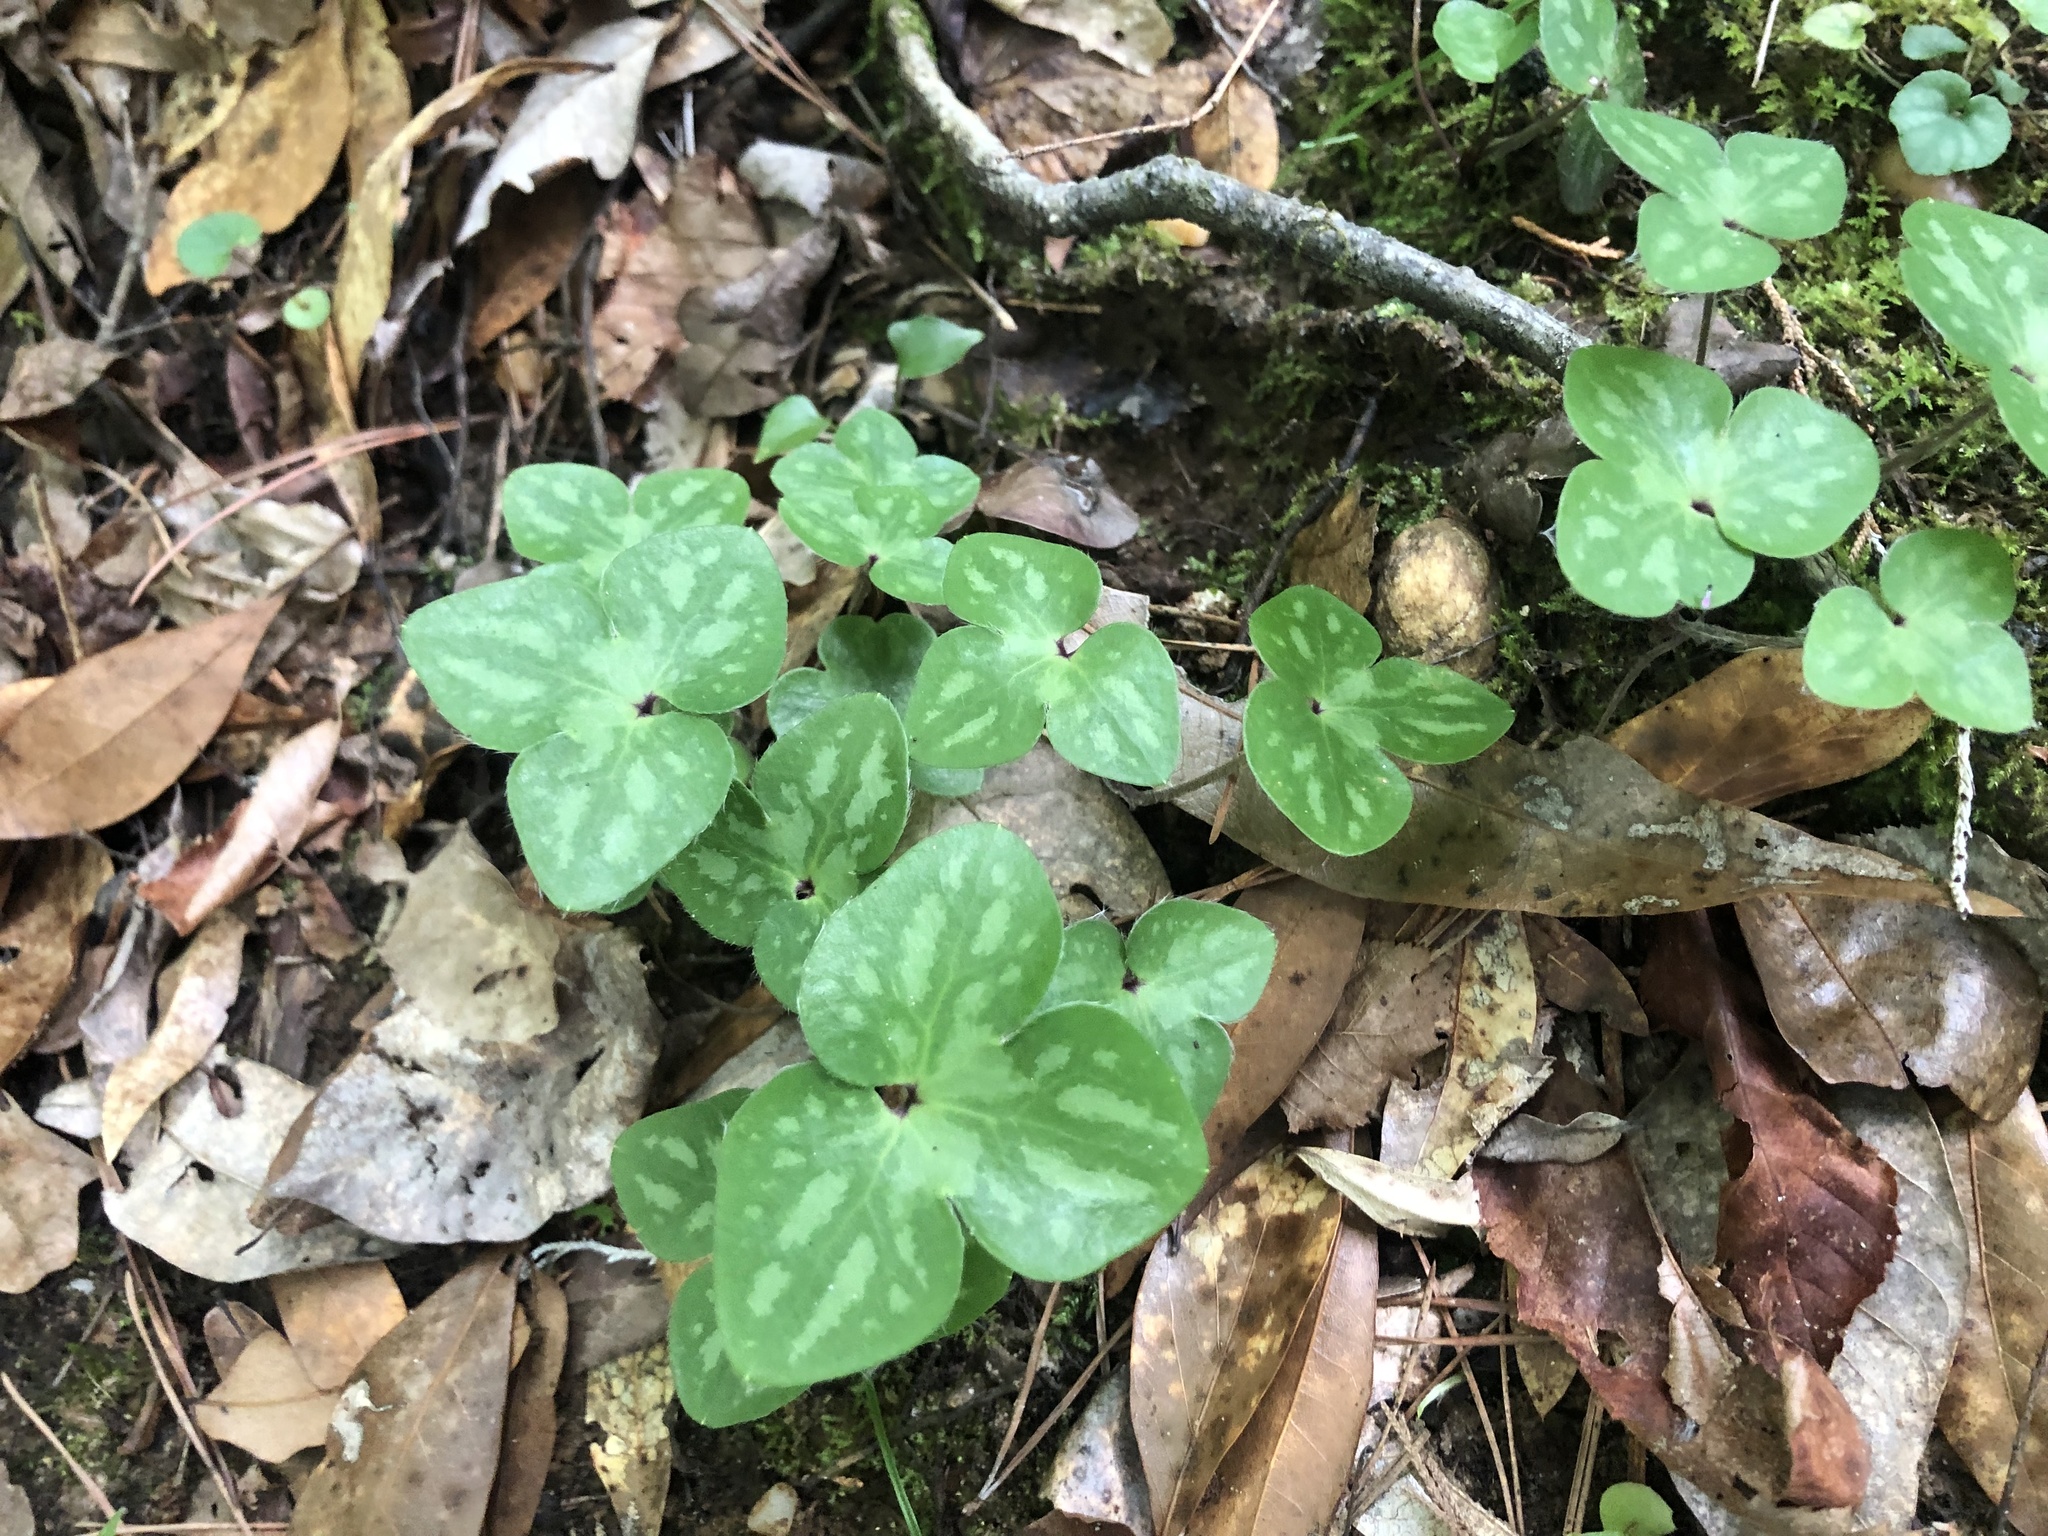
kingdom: Plantae
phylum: Tracheophyta
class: Magnoliopsida
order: Ranunculales
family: Ranunculaceae
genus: Hepatica
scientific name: Hepatica americana
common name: American hepatica
